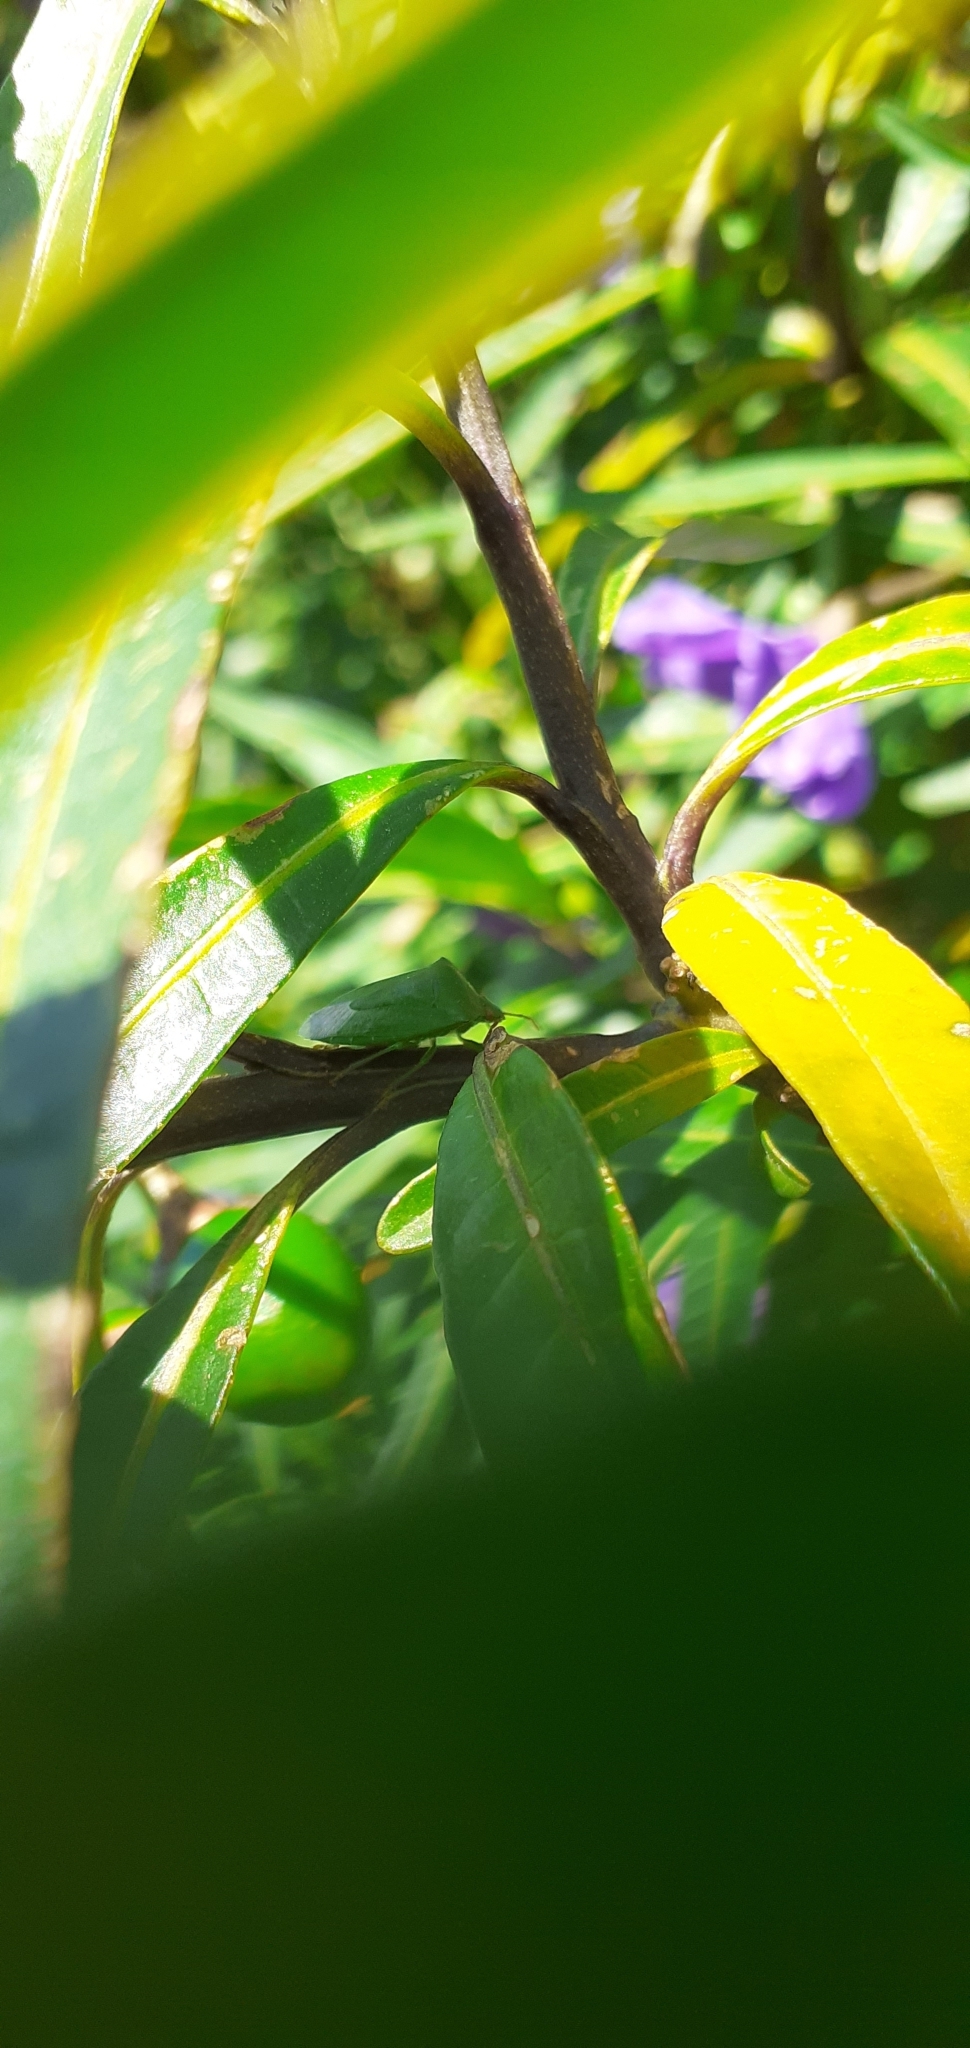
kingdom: Animalia
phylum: Arthropoda
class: Insecta
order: Hemiptera
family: Pentatomidae
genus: Cuspicona
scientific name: Cuspicona simplex
